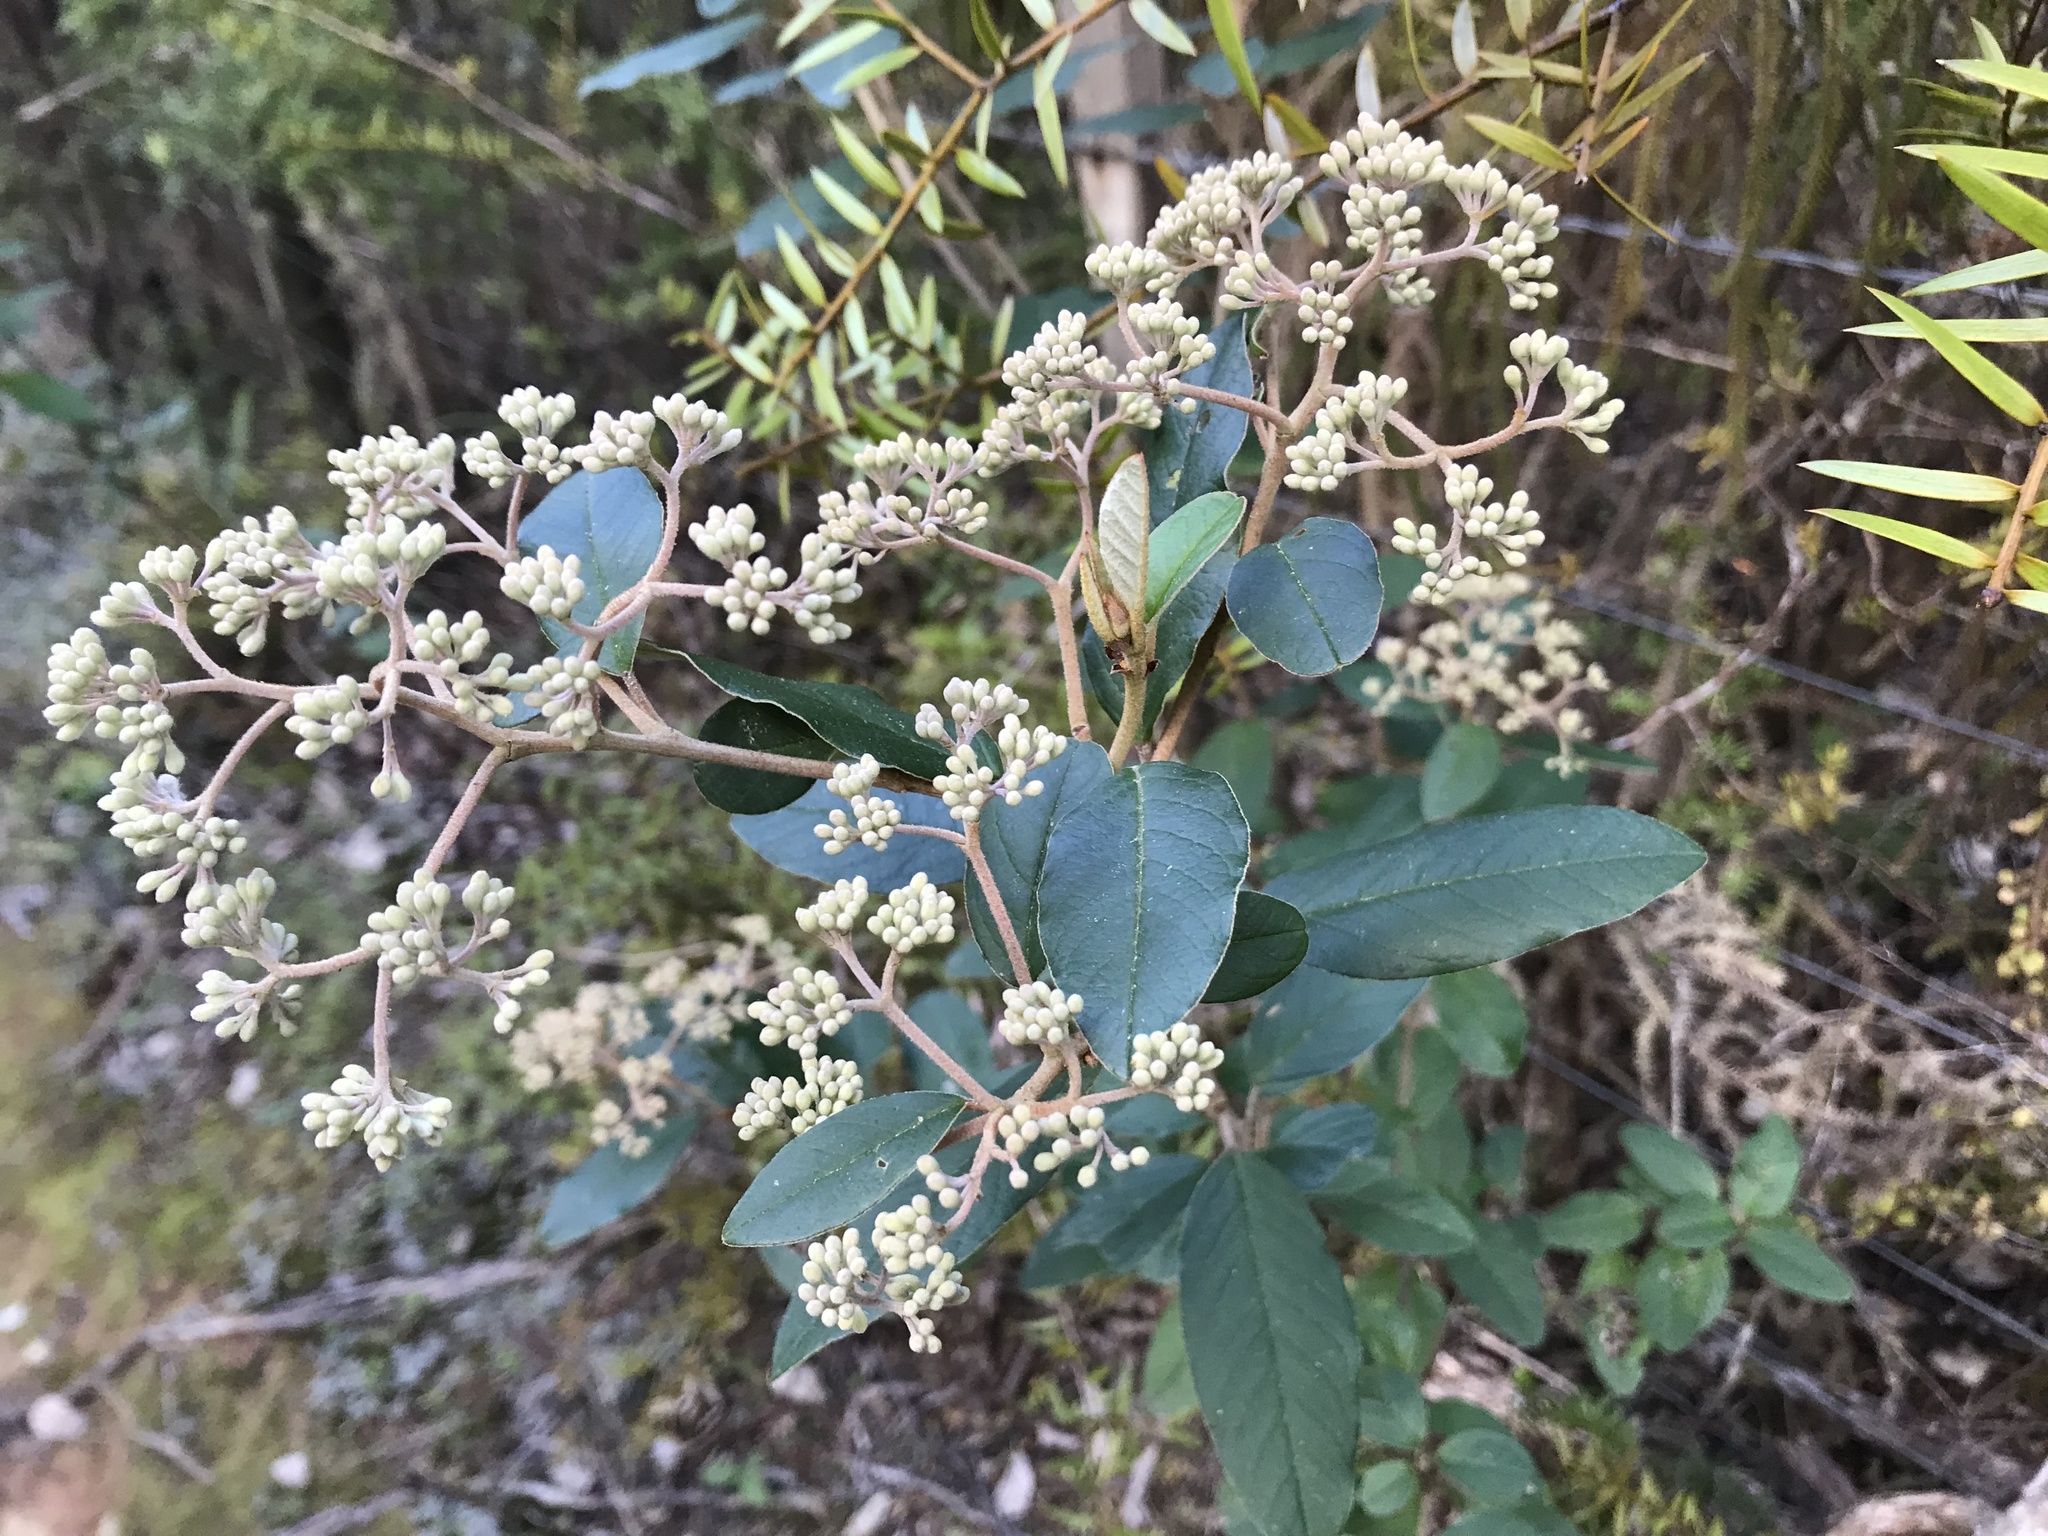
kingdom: Plantae
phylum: Tracheophyta
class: Magnoliopsida
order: Rosales
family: Rhamnaceae
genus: Pomaderris
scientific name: Pomaderris kumeraho
